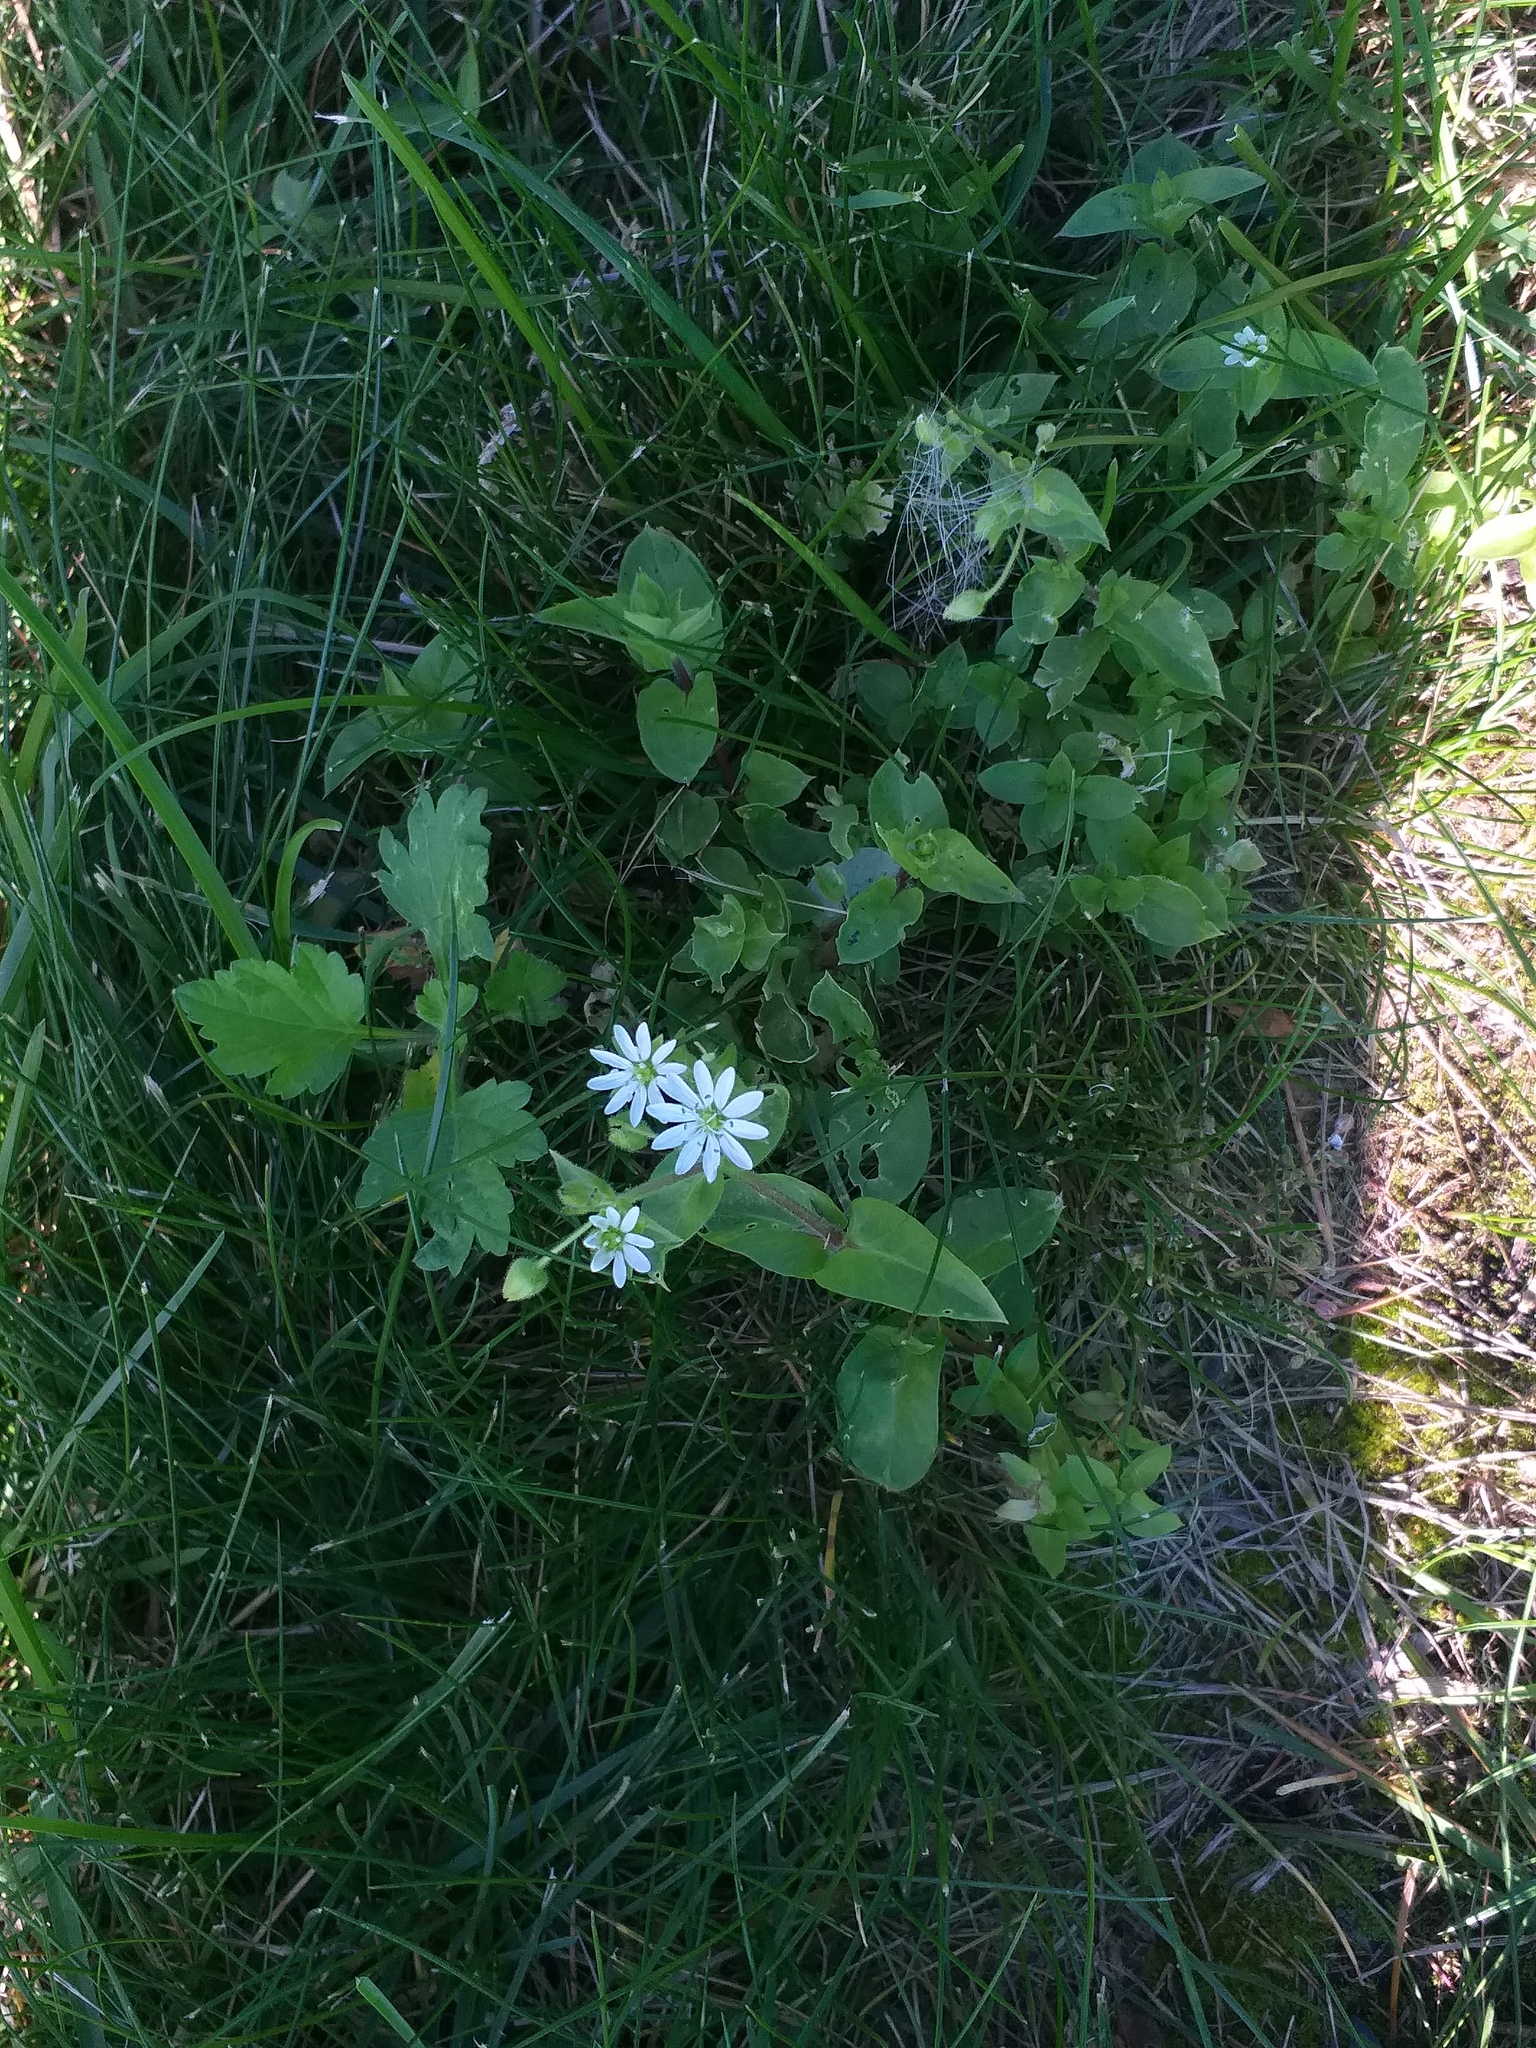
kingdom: Plantae
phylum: Tracheophyta
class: Magnoliopsida
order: Caryophyllales
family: Caryophyllaceae
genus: Stellaria
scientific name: Stellaria aquatica
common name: Water chickweed
